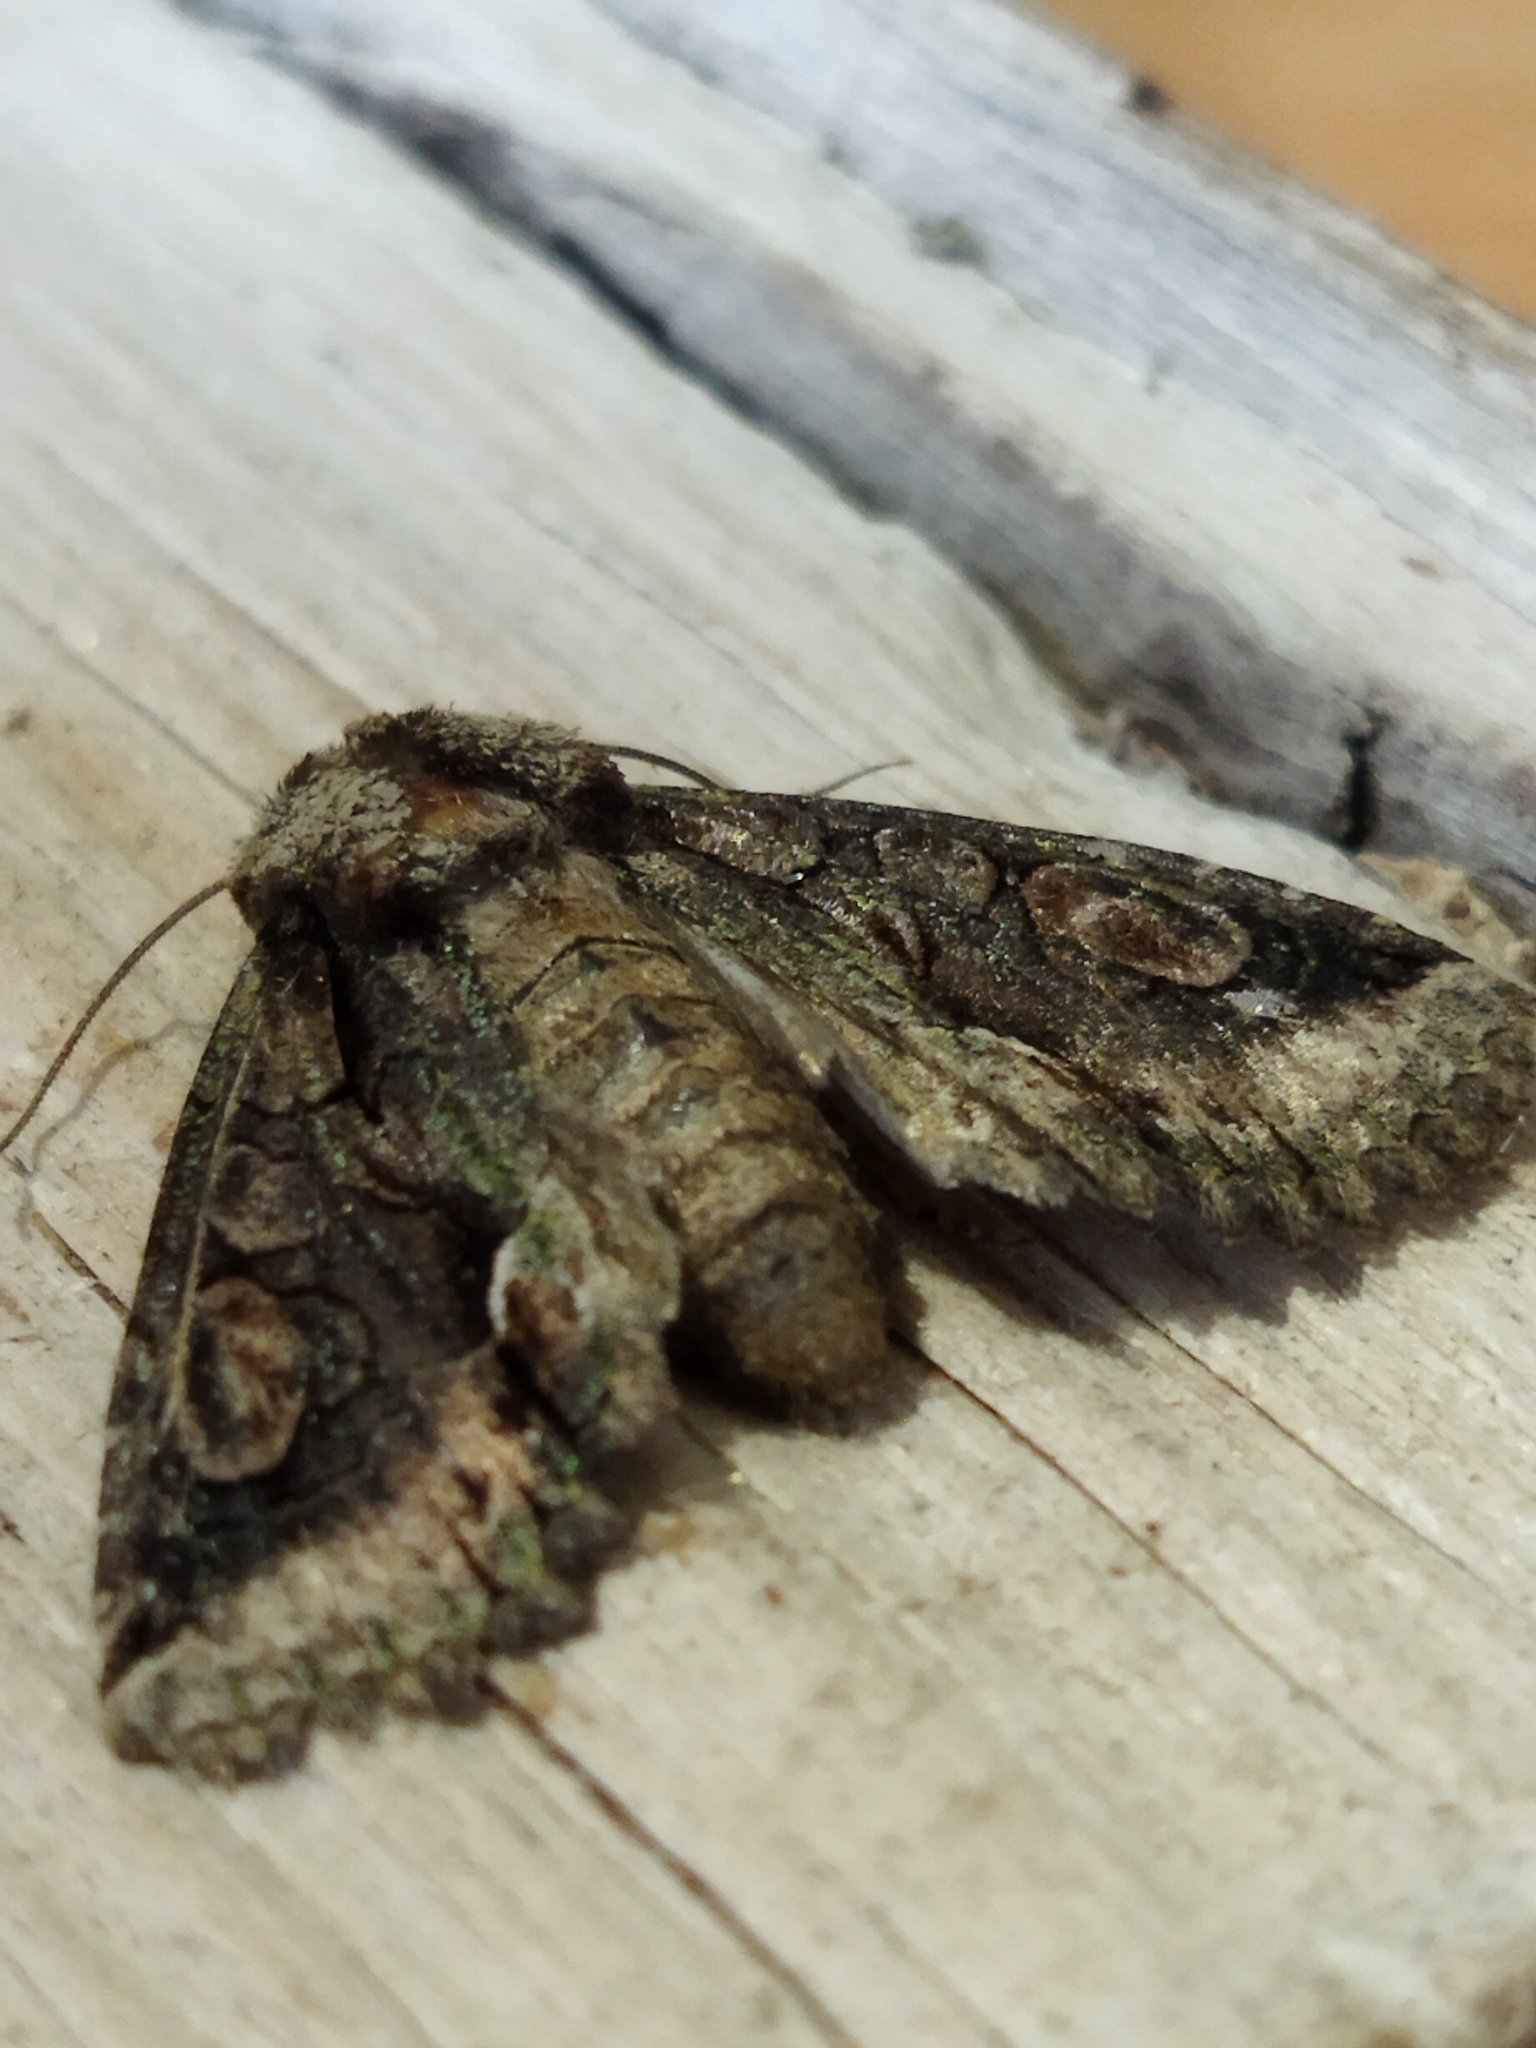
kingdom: Animalia
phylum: Arthropoda
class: Insecta
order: Lepidoptera
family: Noctuidae
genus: Allophyes
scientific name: Allophyes oxyacanthae
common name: Green-brindled crescent
